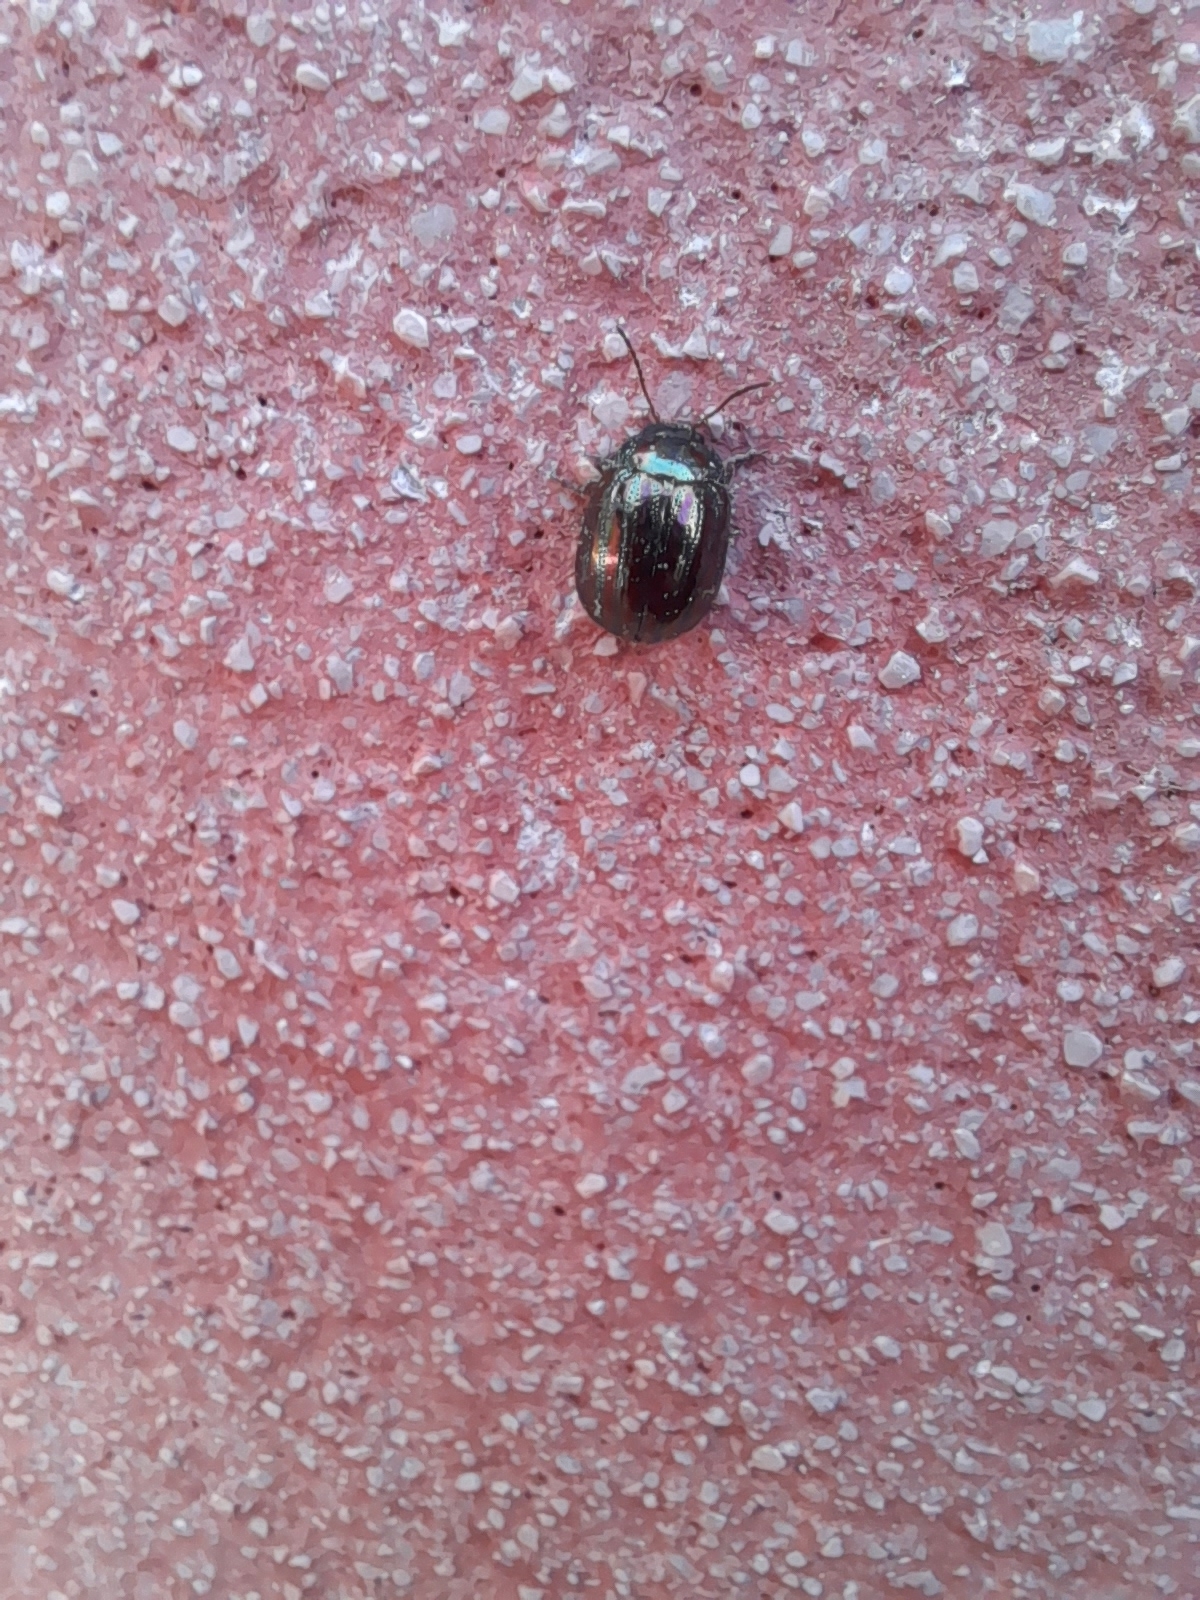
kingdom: Animalia
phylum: Arthropoda
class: Insecta
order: Coleoptera
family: Chrysomelidae
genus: Chrysolina
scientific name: Chrysolina americana
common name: Rosemary beetle
